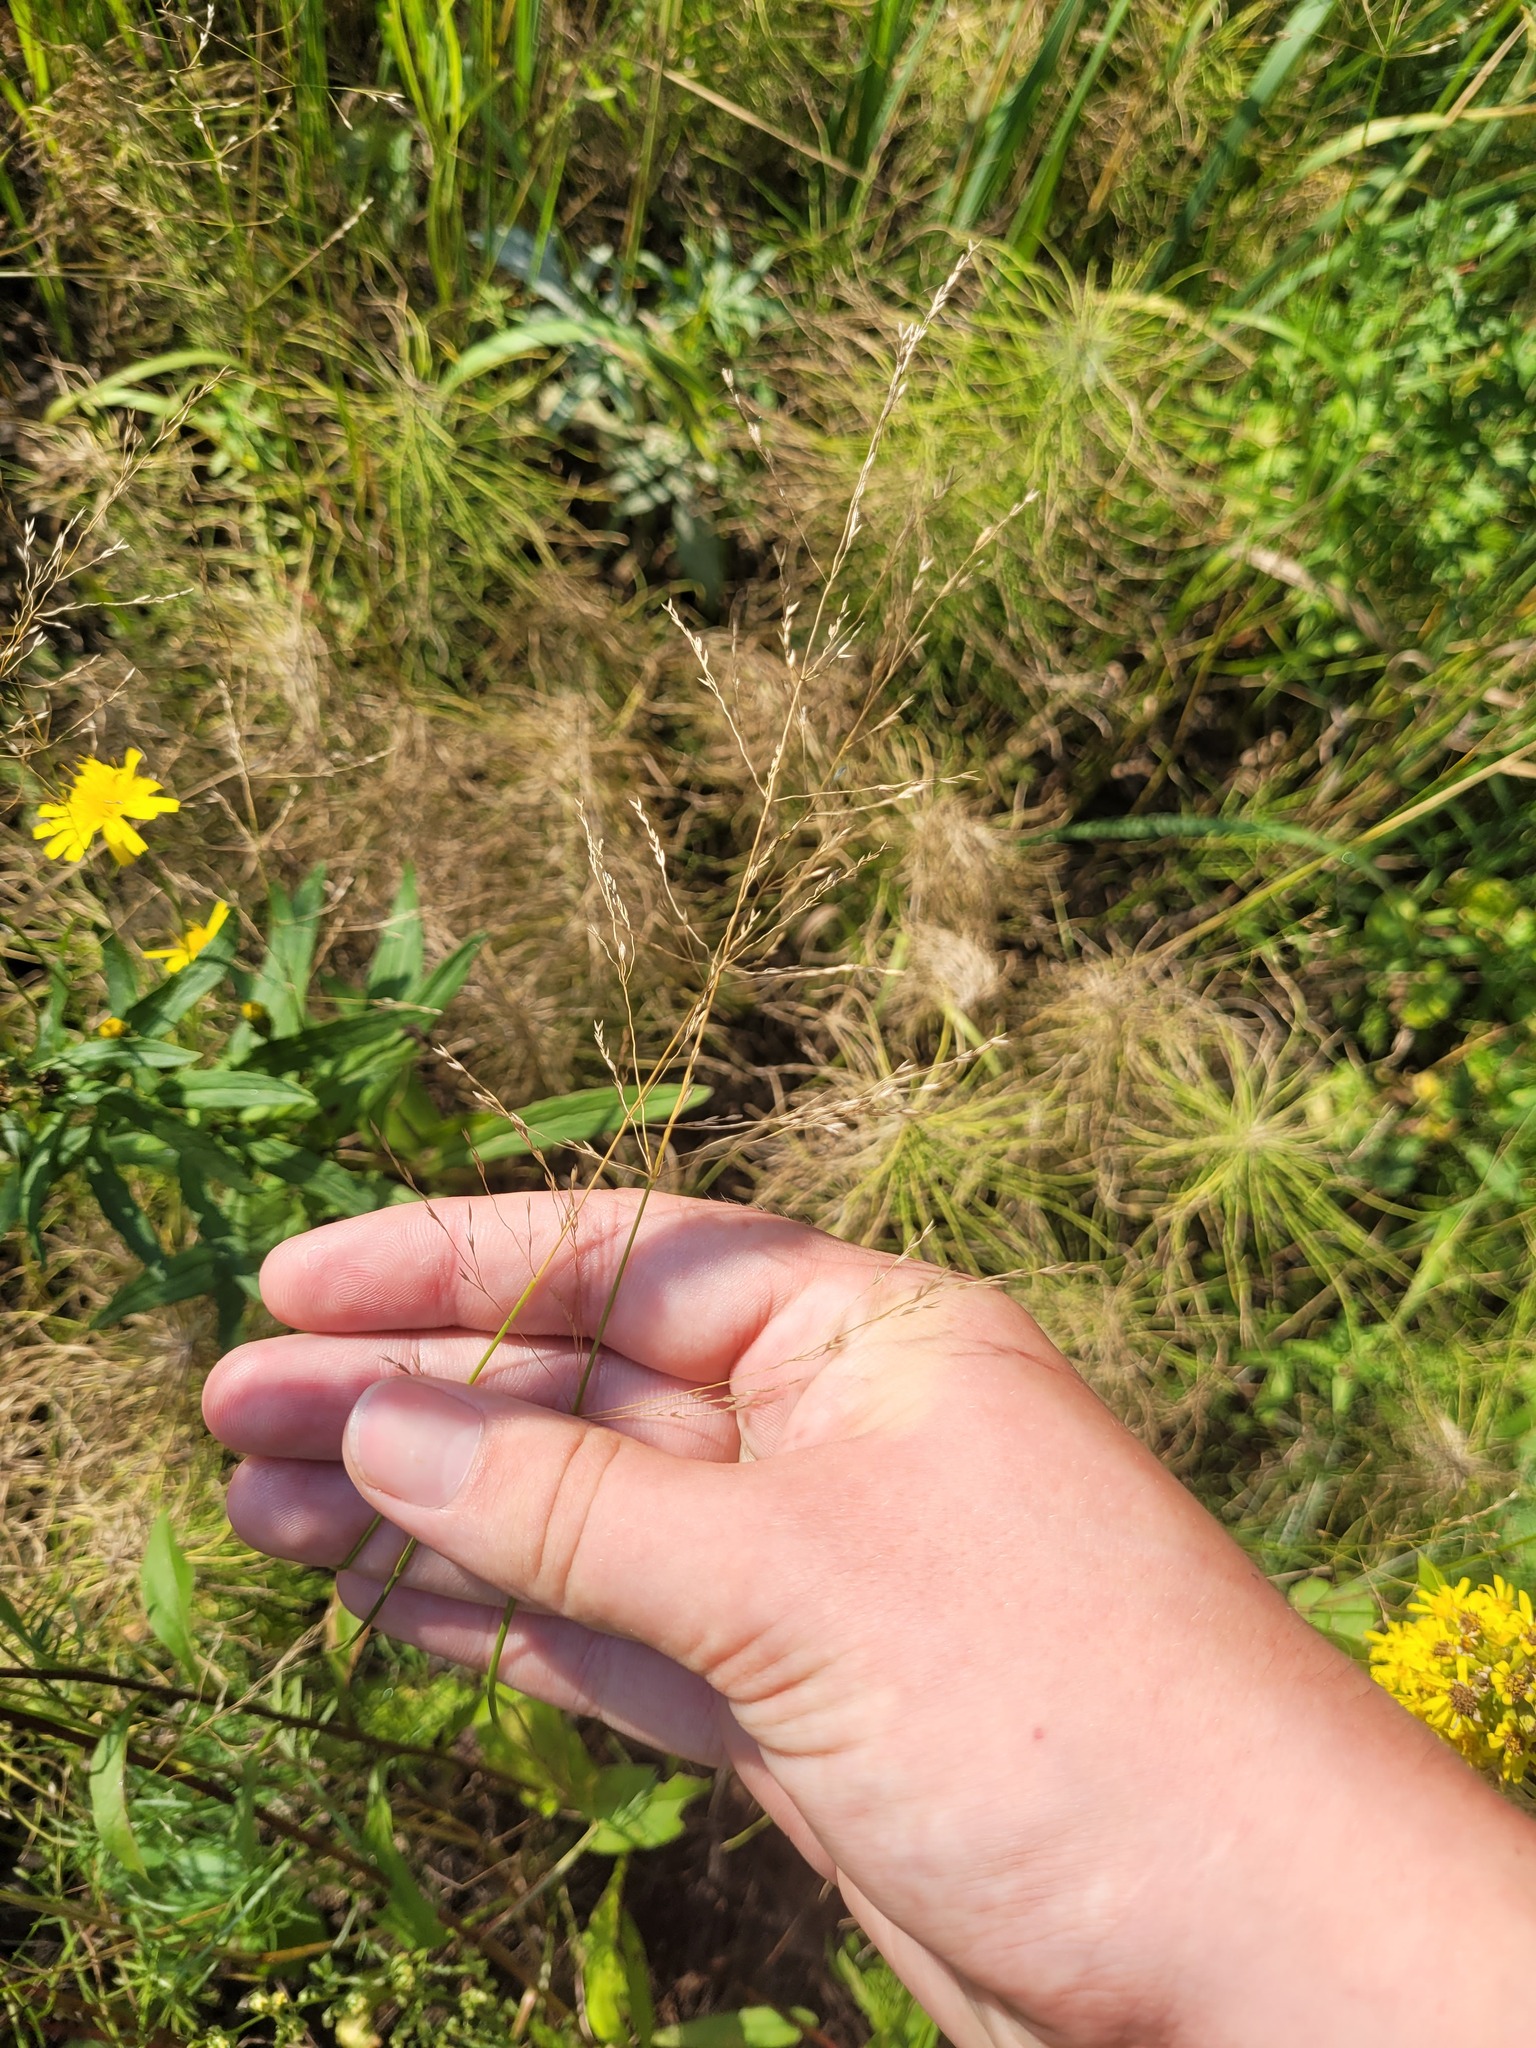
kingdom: Plantae
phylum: Tracheophyta
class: Liliopsida
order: Poales
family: Poaceae
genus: Poa
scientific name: Poa palustris
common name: Swamp meadow-grass
